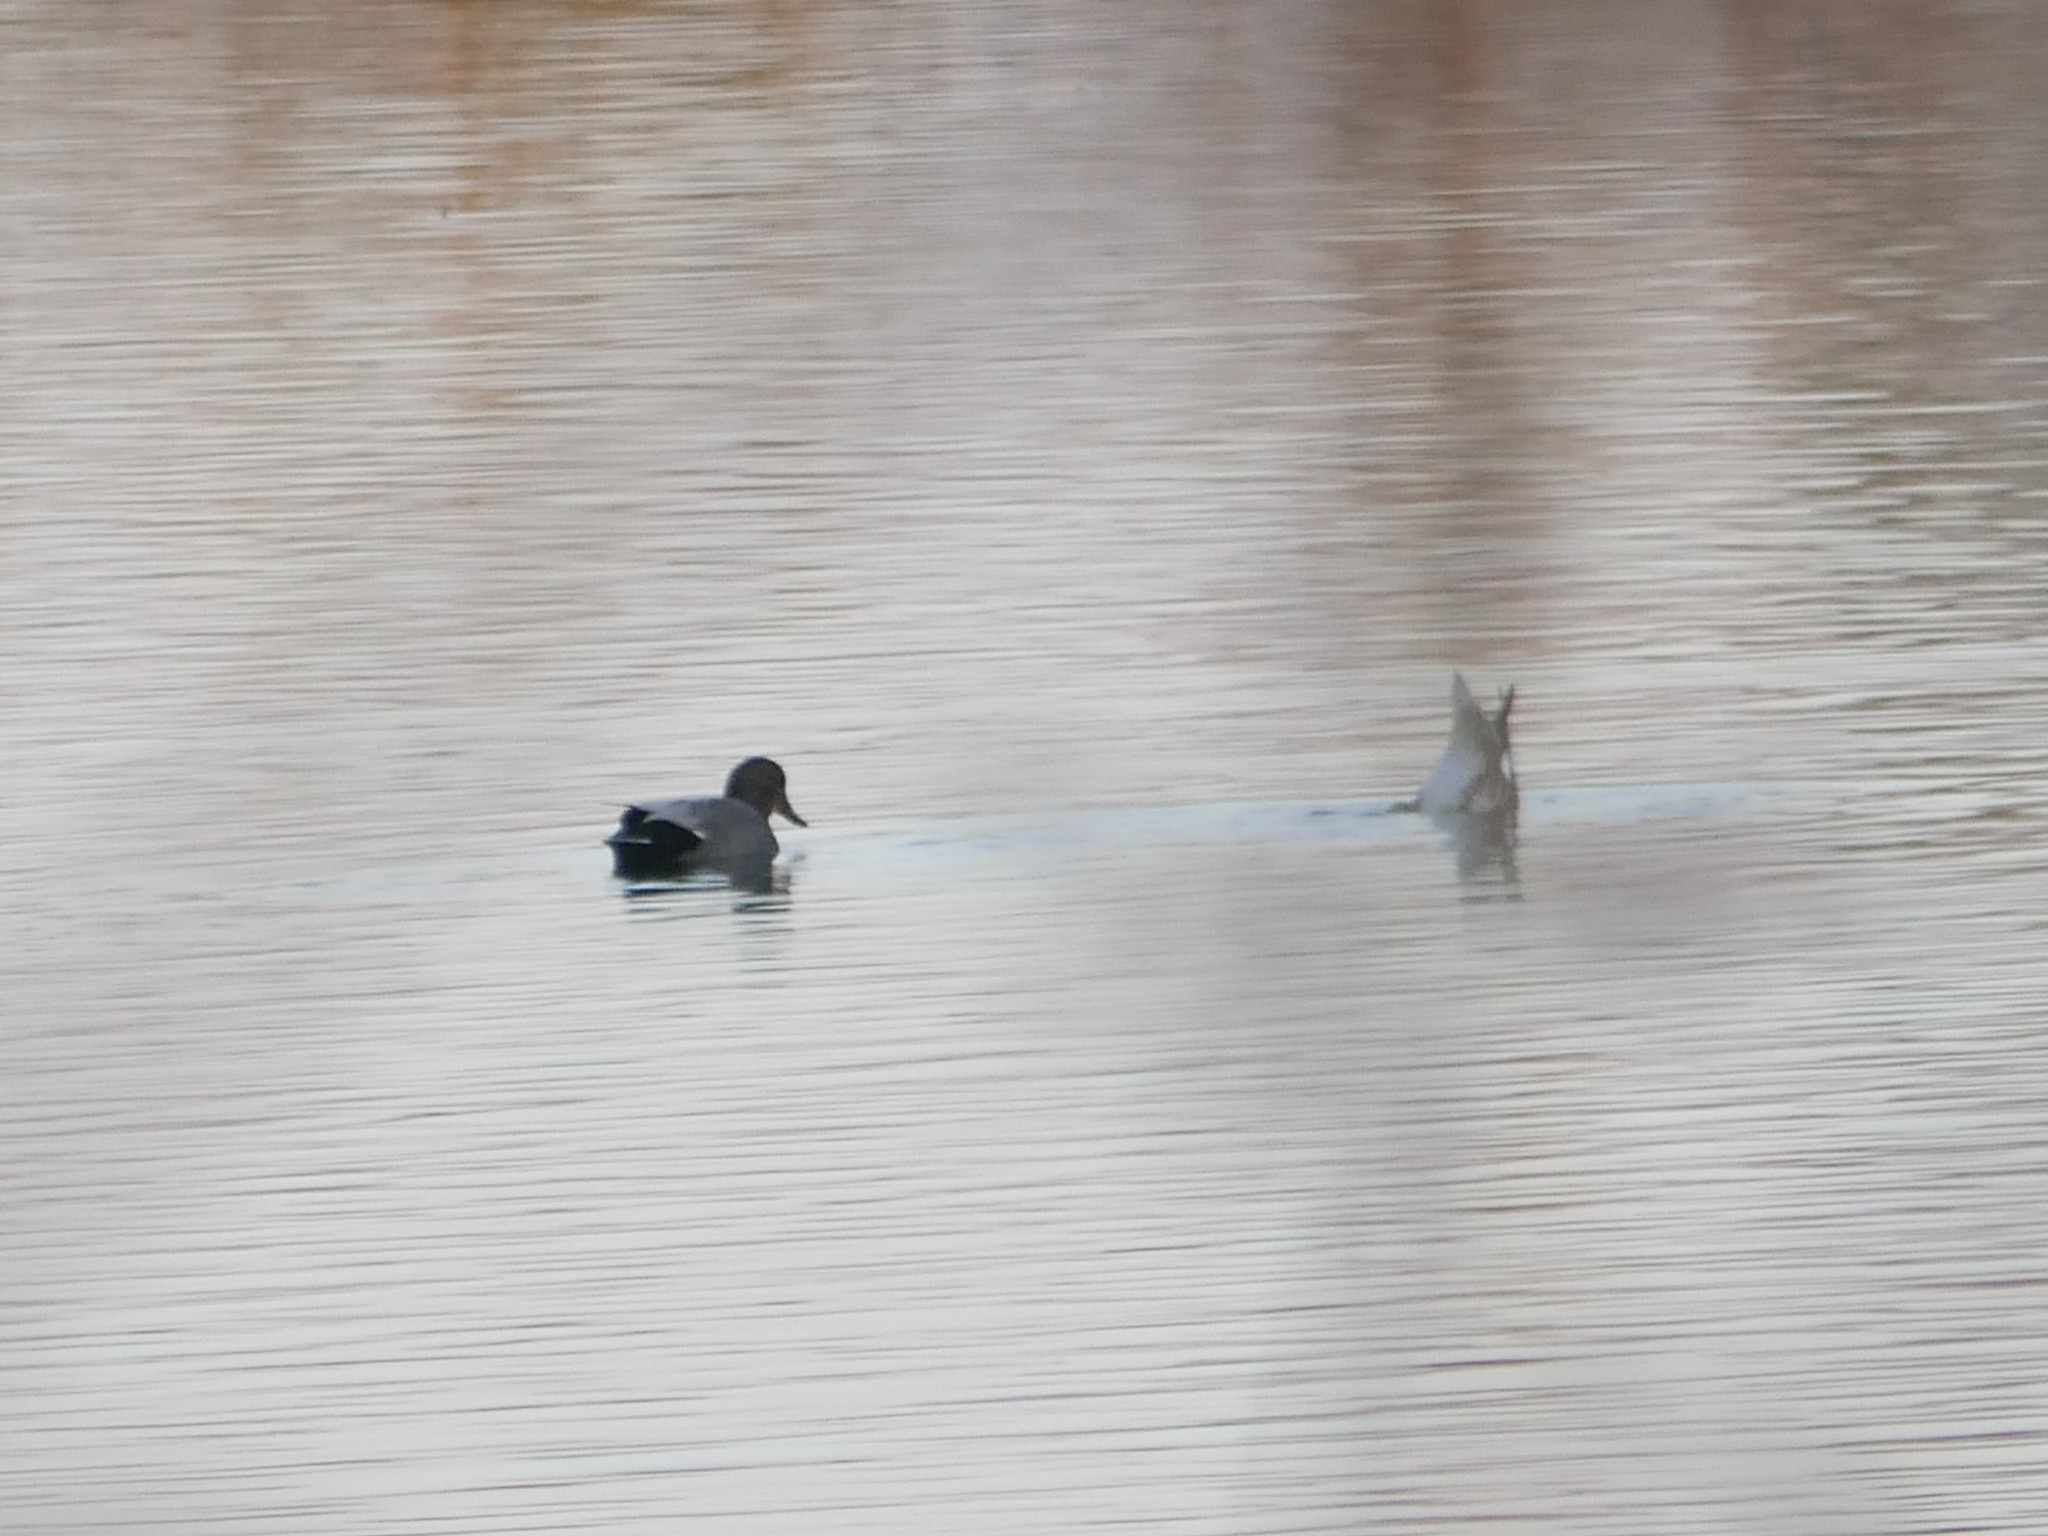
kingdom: Animalia
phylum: Chordata
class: Aves
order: Anseriformes
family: Anatidae
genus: Mareca
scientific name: Mareca strepera
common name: Gadwall
